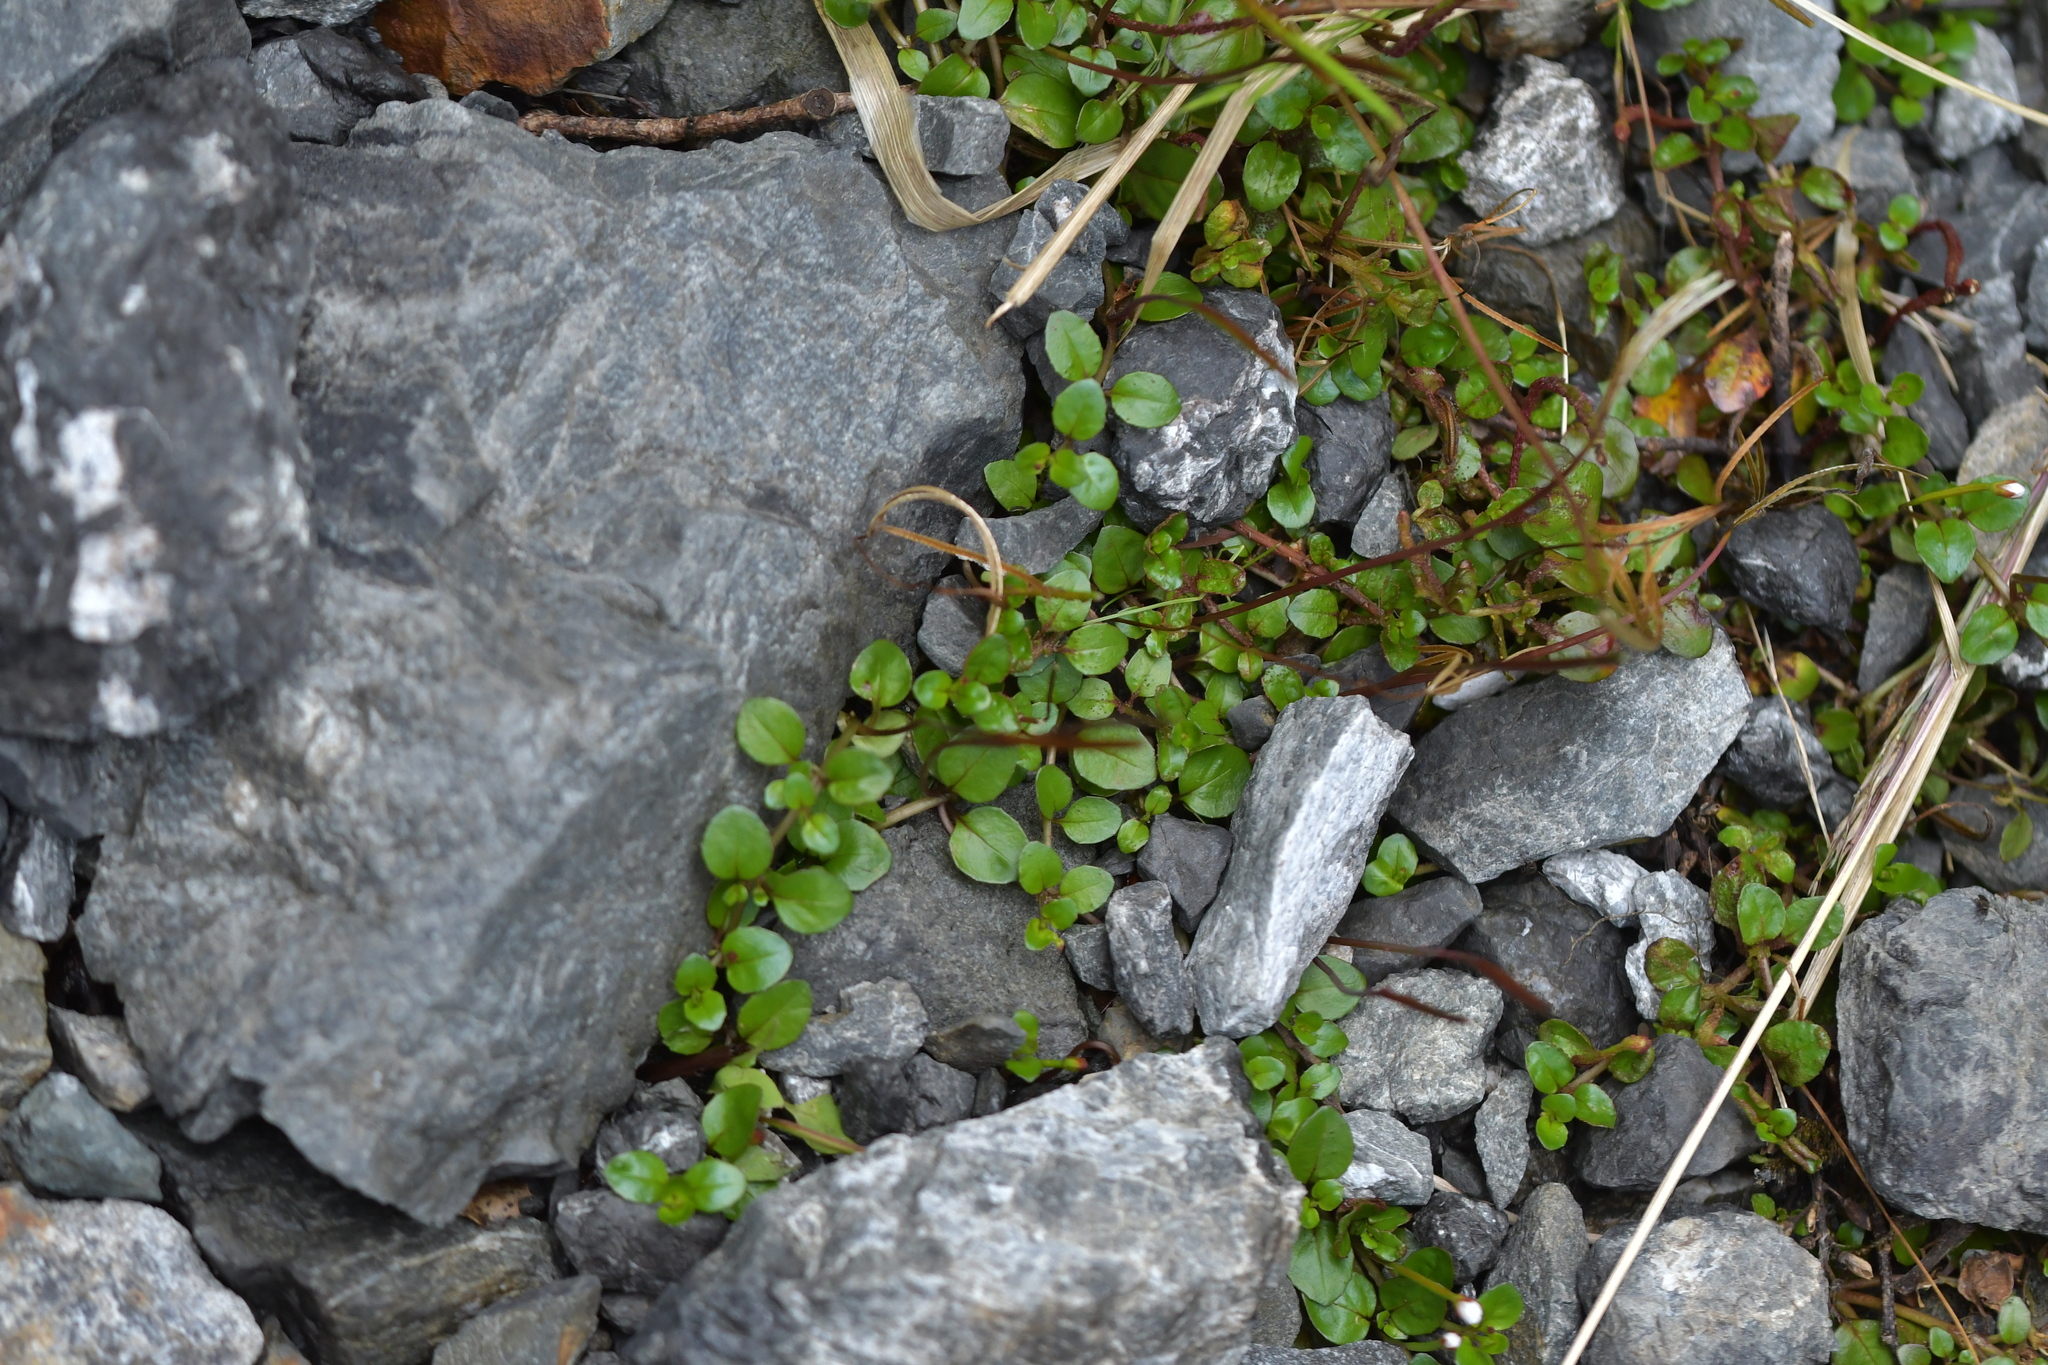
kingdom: Plantae
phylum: Tracheophyta
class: Magnoliopsida
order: Myrtales
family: Onagraceae
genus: Epilobium
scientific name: Epilobium brunnescens
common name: New zealand willowherb
